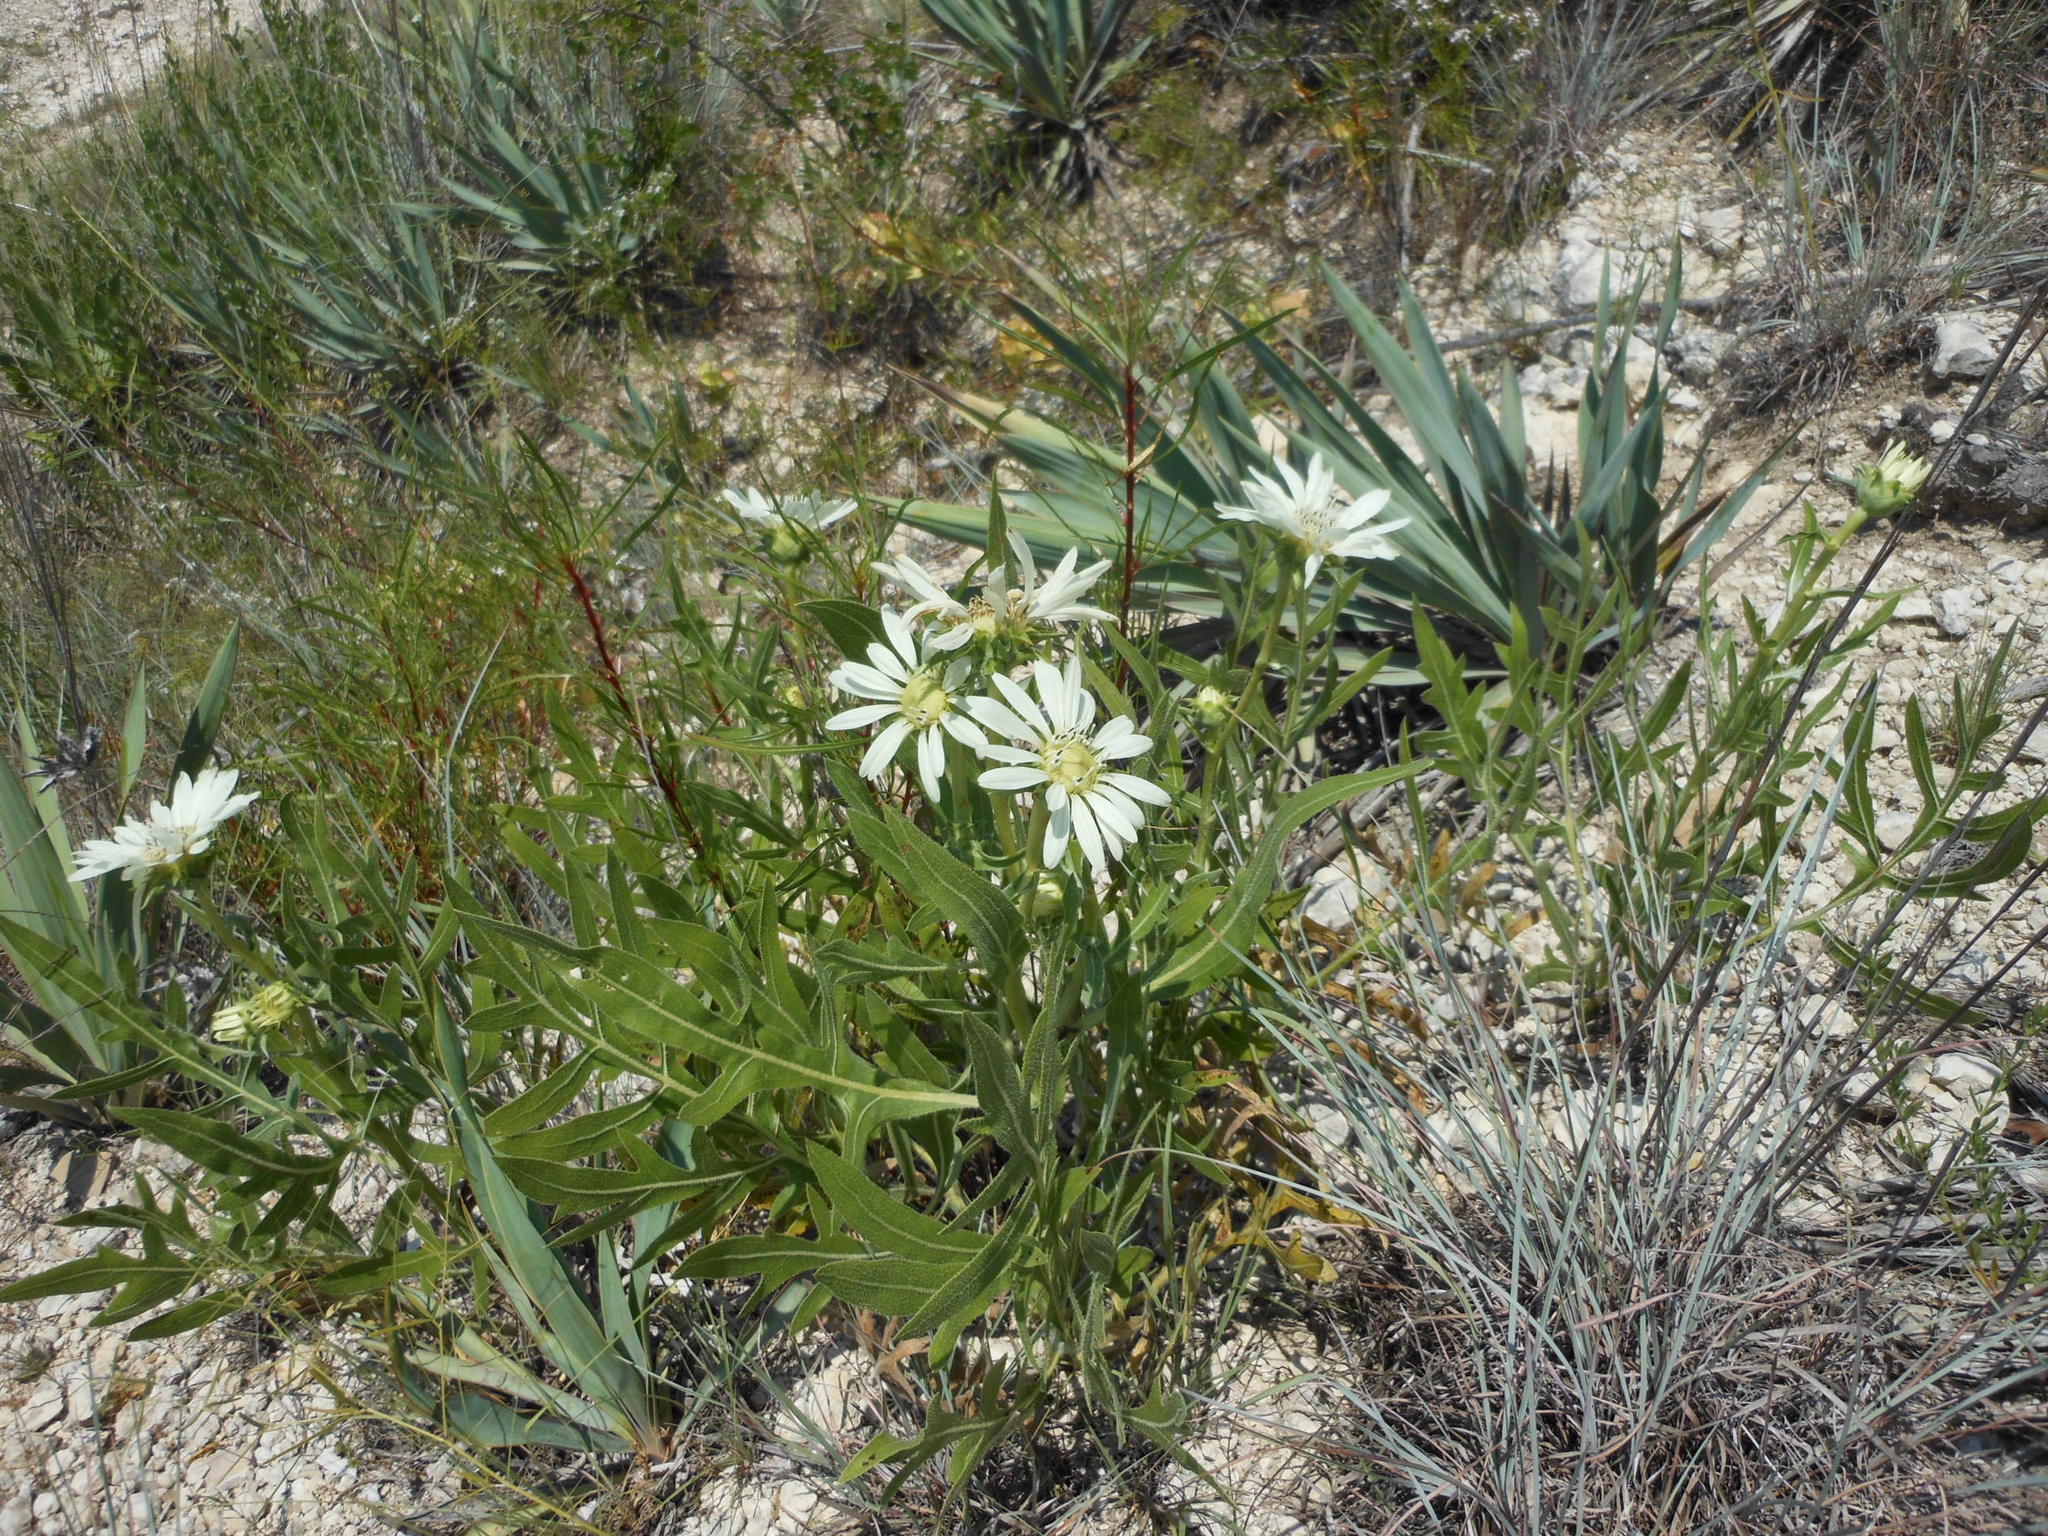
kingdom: Plantae
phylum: Tracheophyta
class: Magnoliopsida
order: Asterales
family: Asteraceae
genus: Silphium
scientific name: Silphium albiflorum
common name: White rosinweed
